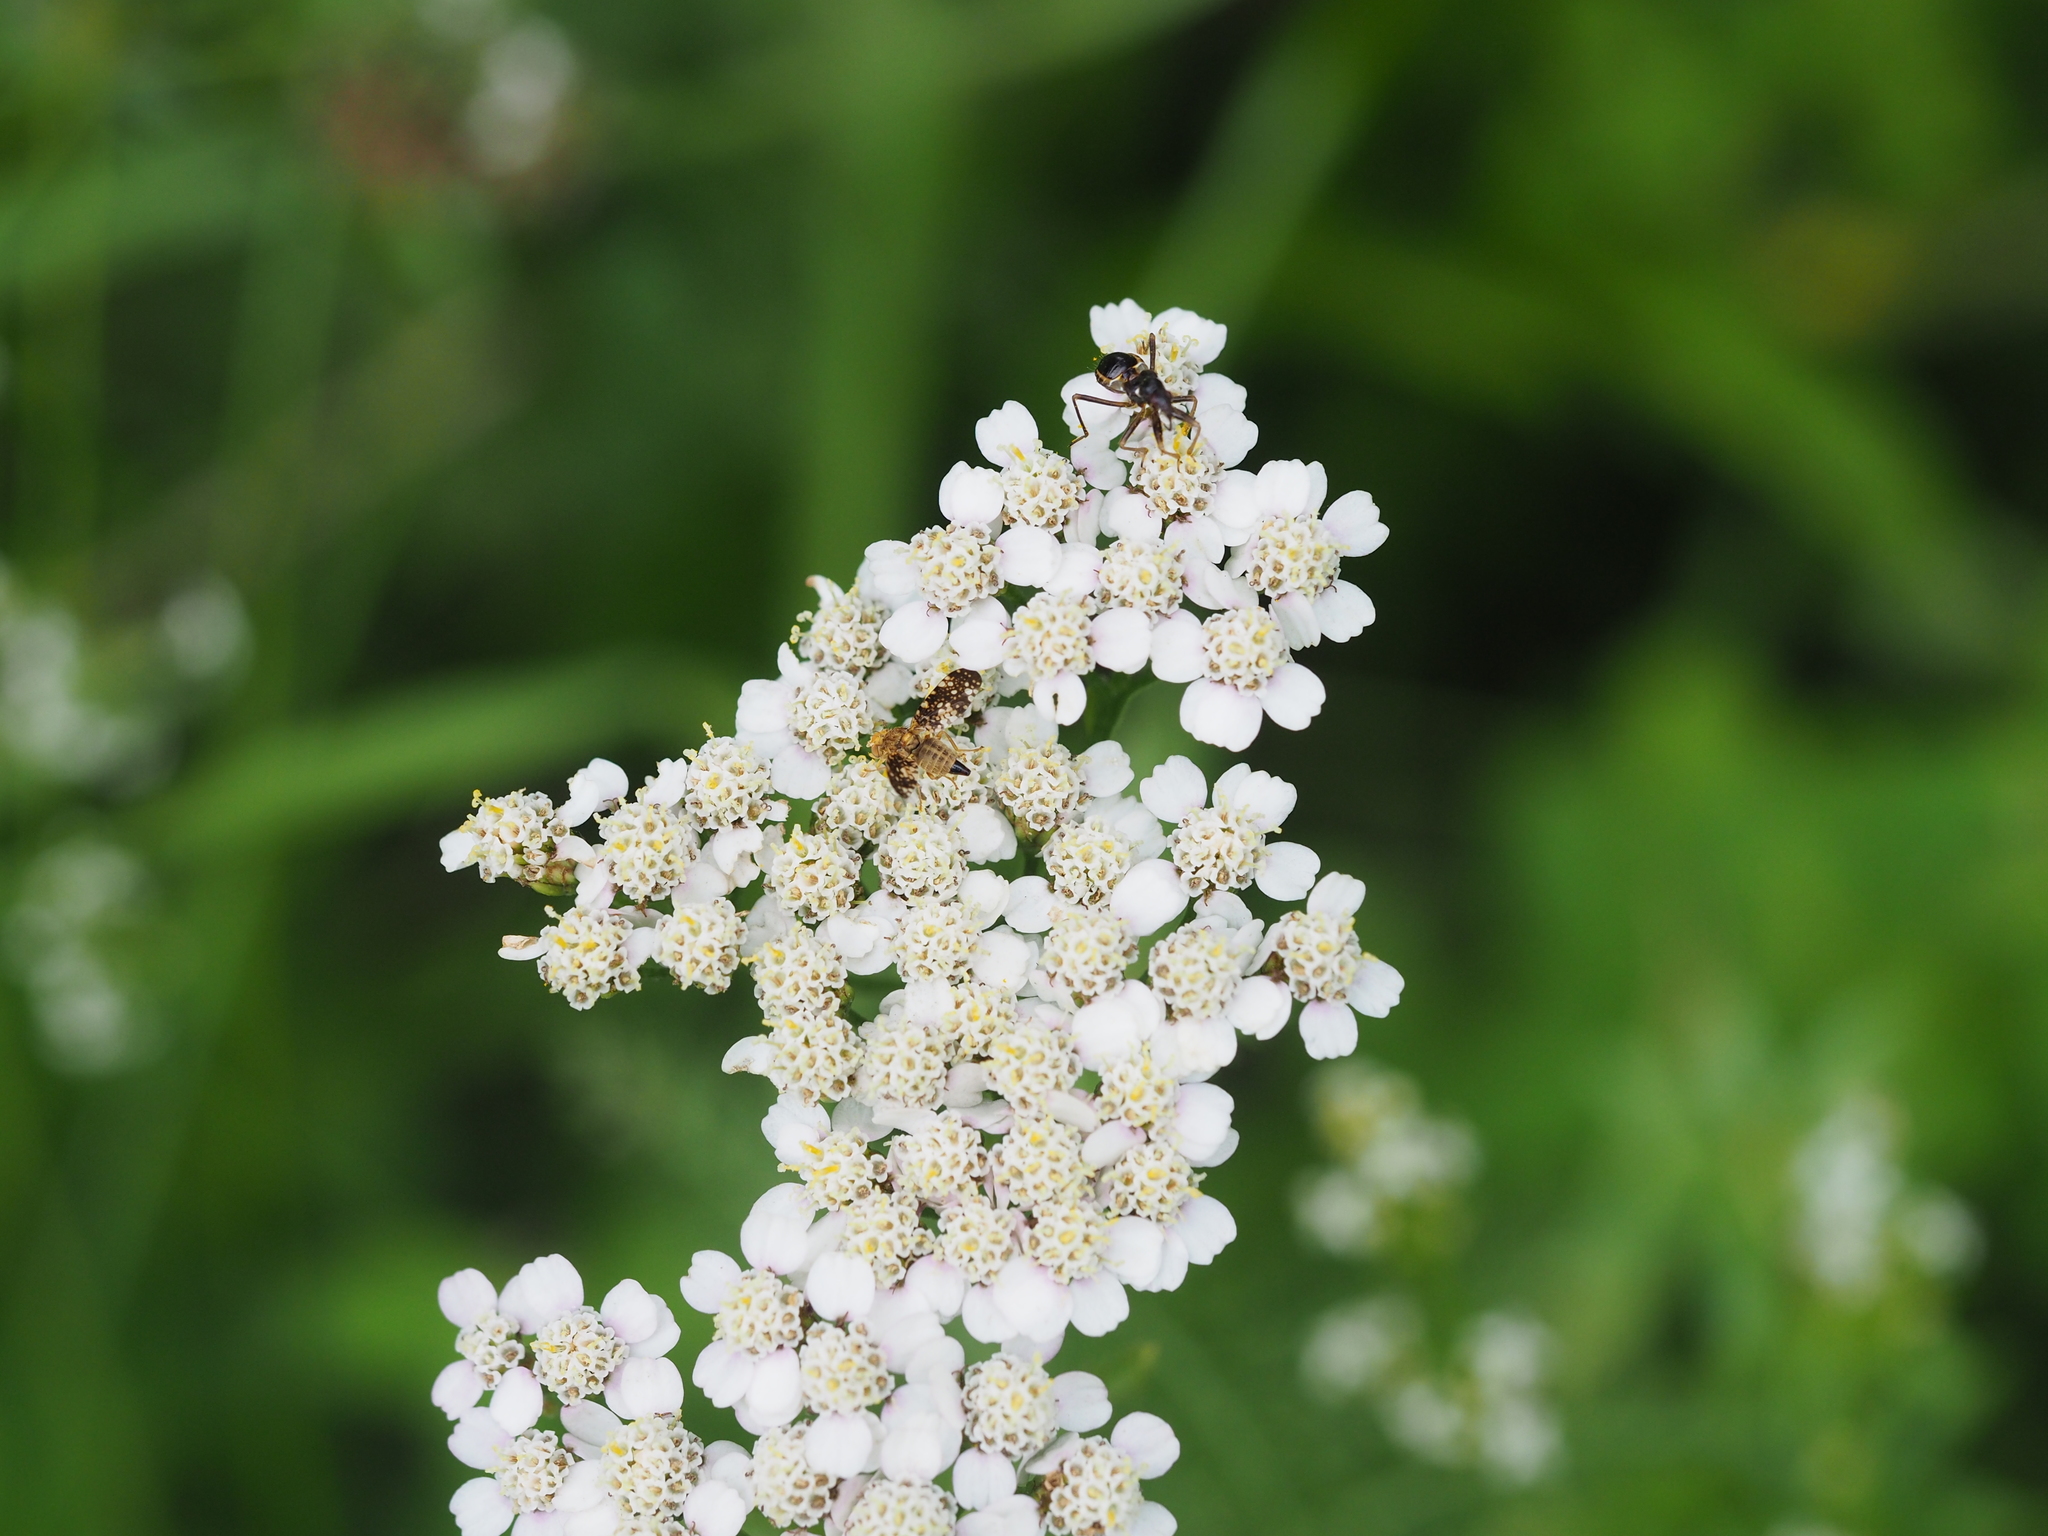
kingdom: Animalia
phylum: Arthropoda
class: Insecta
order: Diptera
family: Tephritidae
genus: Oxyna
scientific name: Oxyna flavipennis
